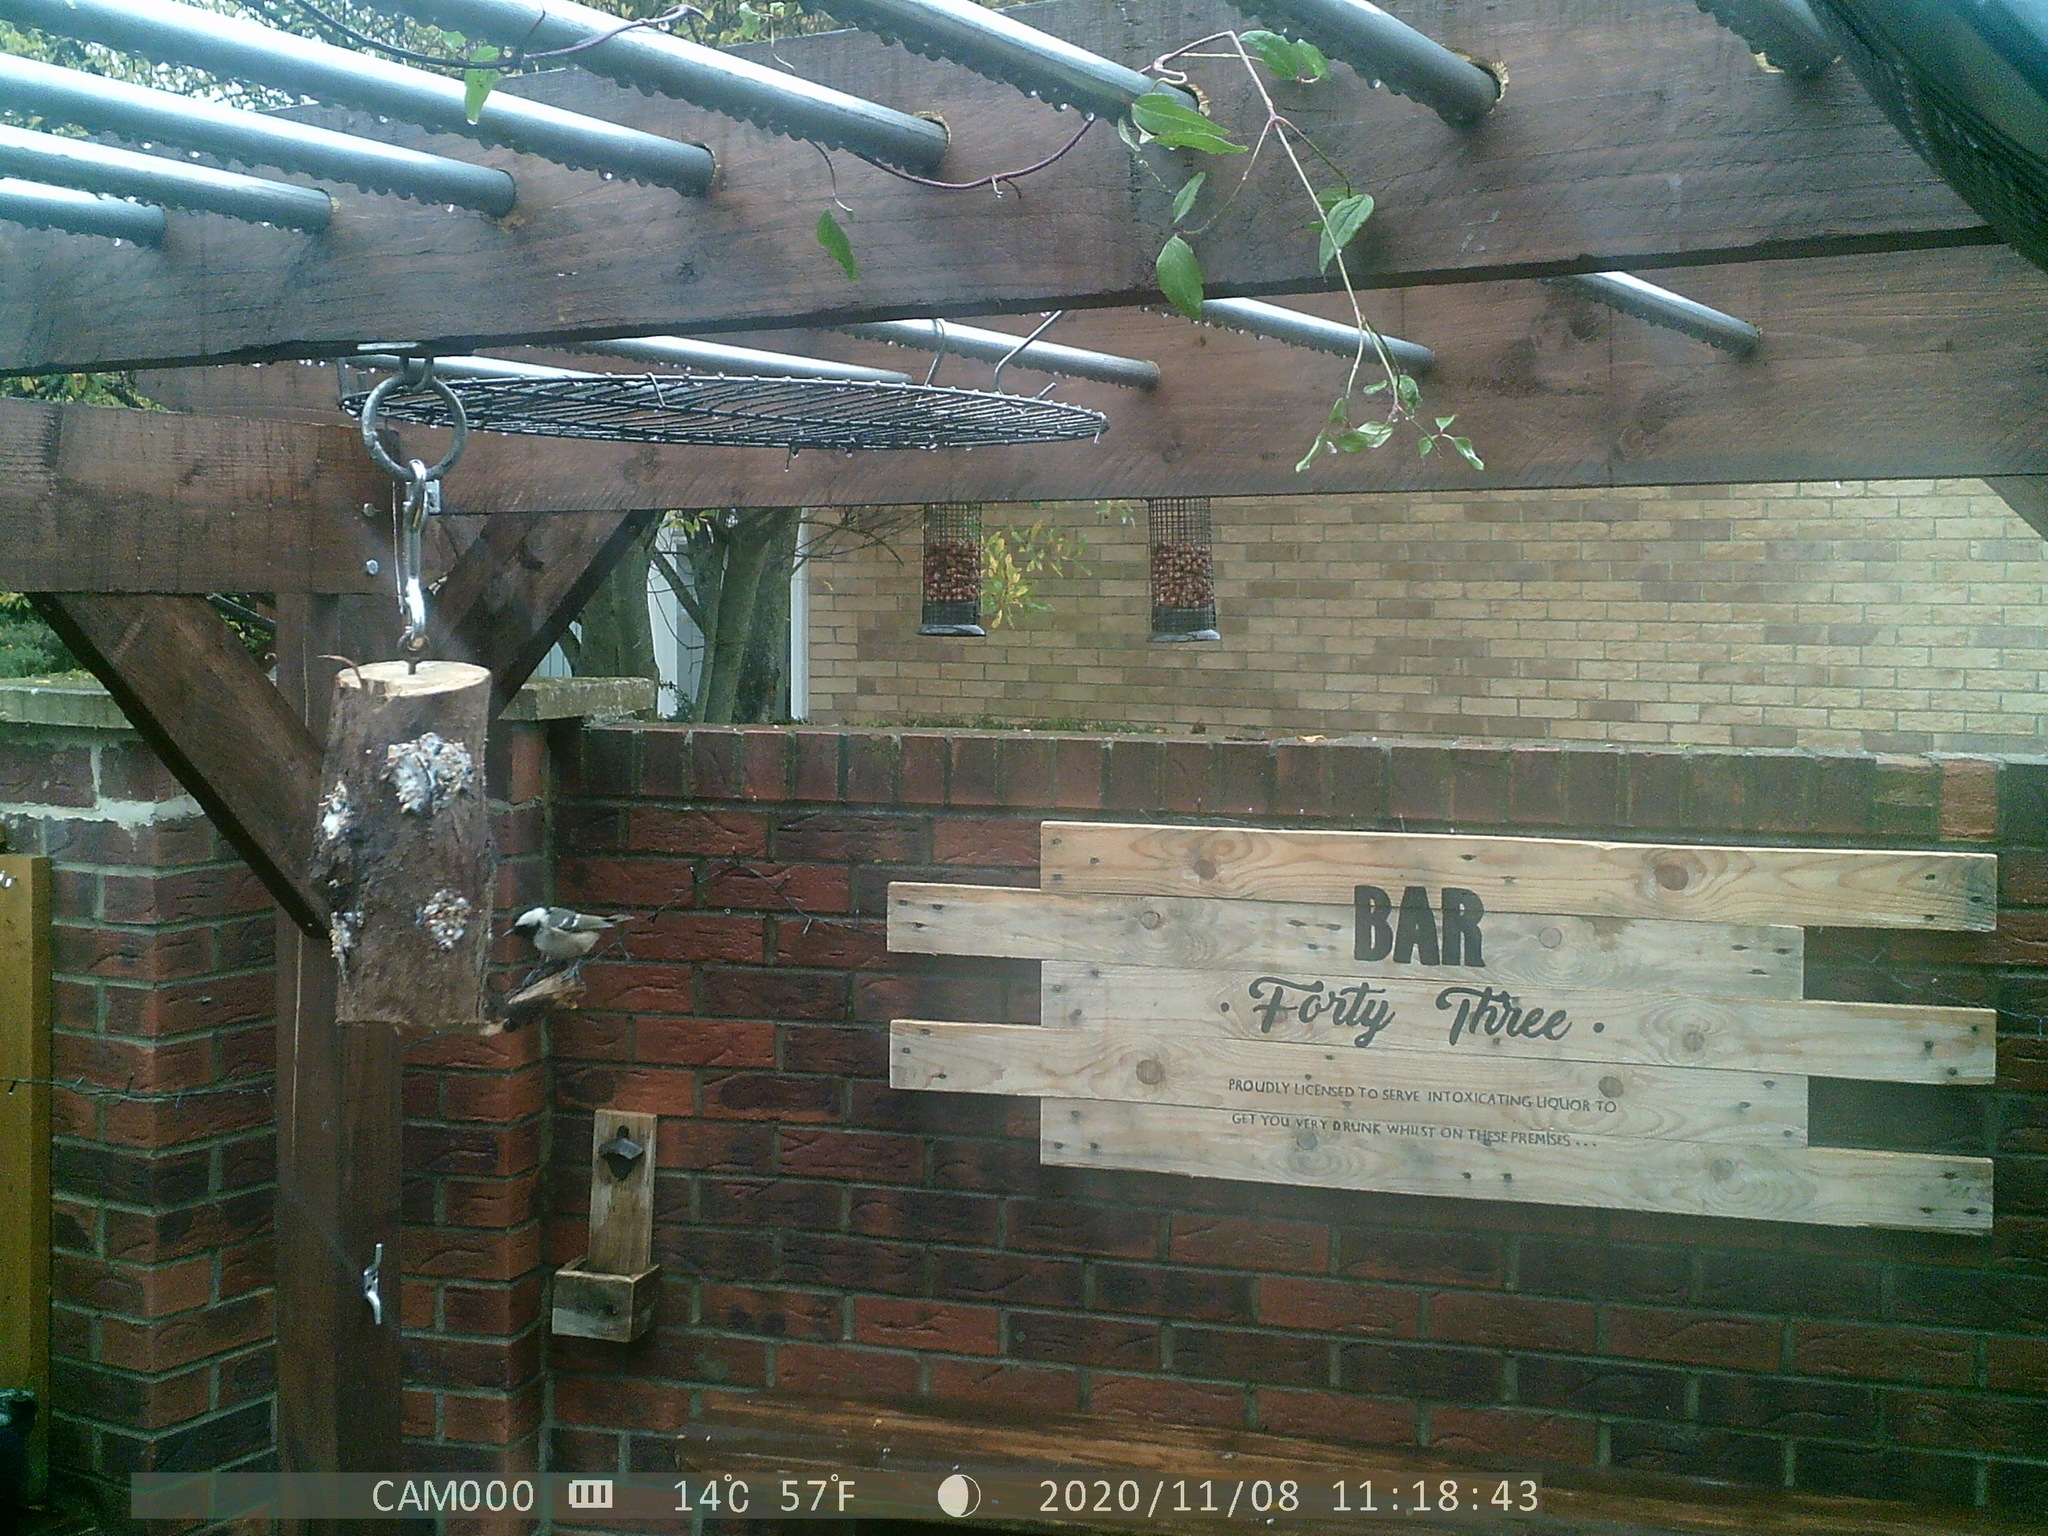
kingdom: Animalia
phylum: Chordata
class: Aves
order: Passeriformes
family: Paridae
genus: Parus
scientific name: Parus major
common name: Great tit
